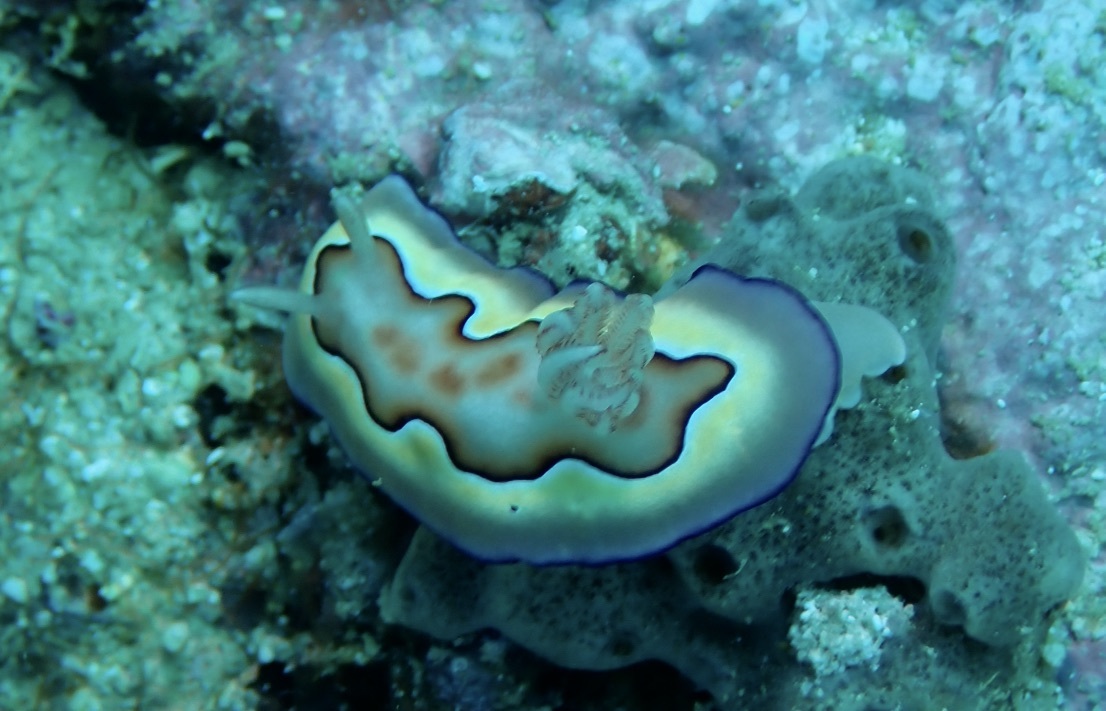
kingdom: Animalia
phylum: Mollusca
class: Gastropoda
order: Nudibranchia
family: Chromodorididae
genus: Goniobranchus
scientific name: Goniobranchus coi
